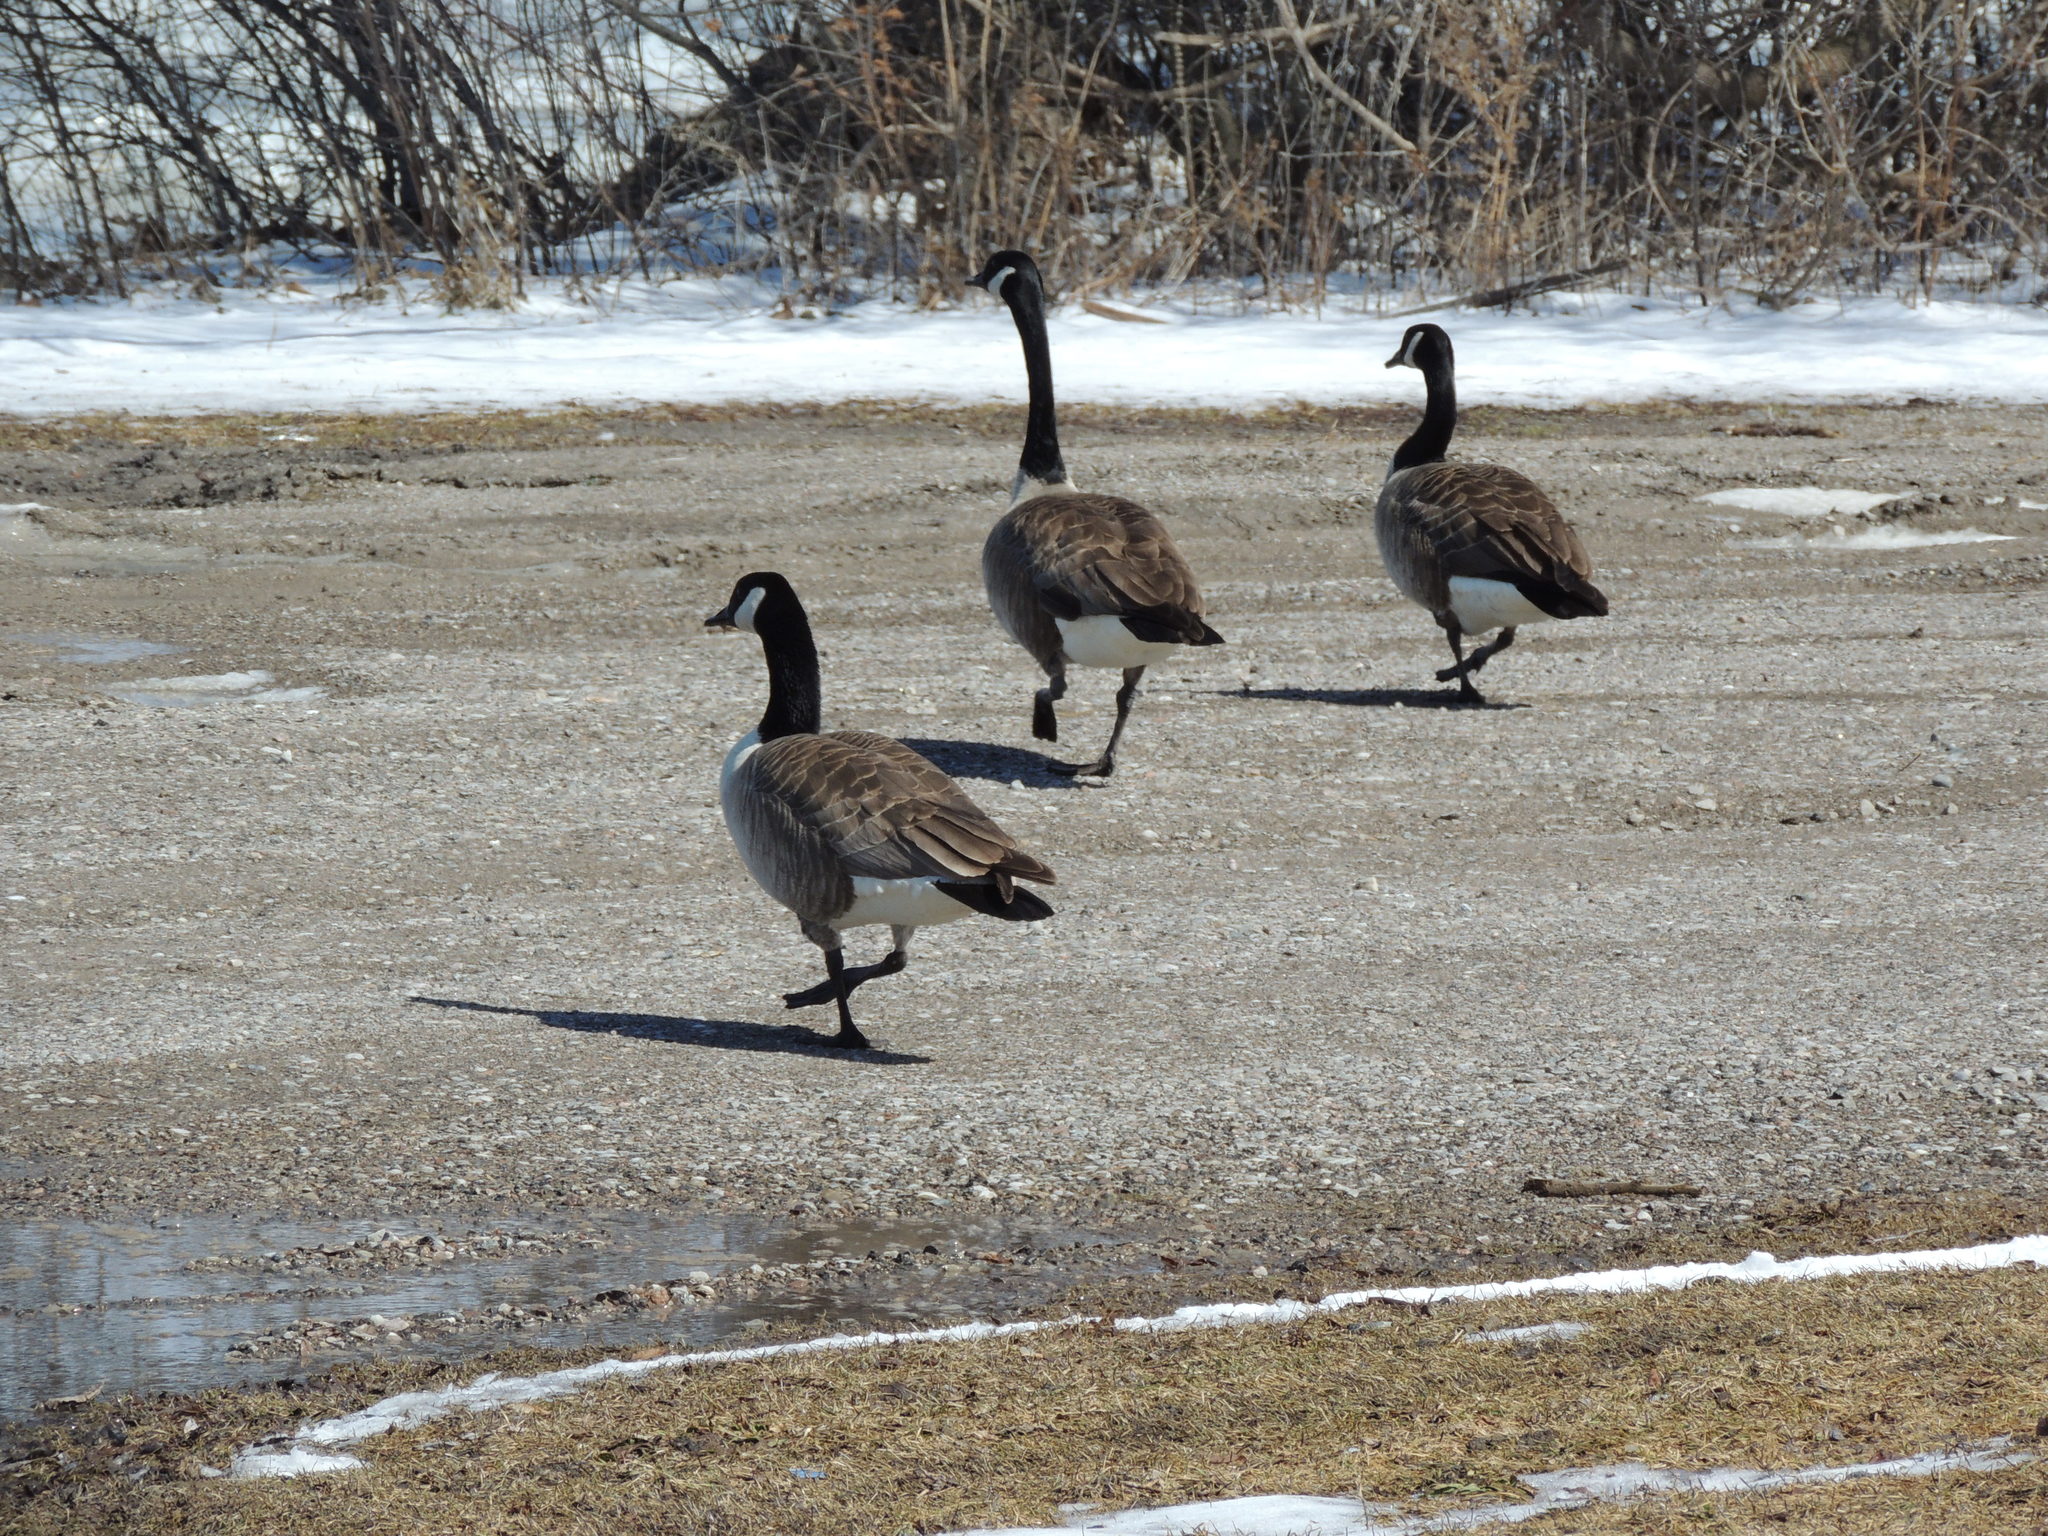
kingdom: Animalia
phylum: Chordata
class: Aves
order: Anseriformes
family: Anatidae
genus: Branta
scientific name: Branta canadensis
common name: Canada goose
